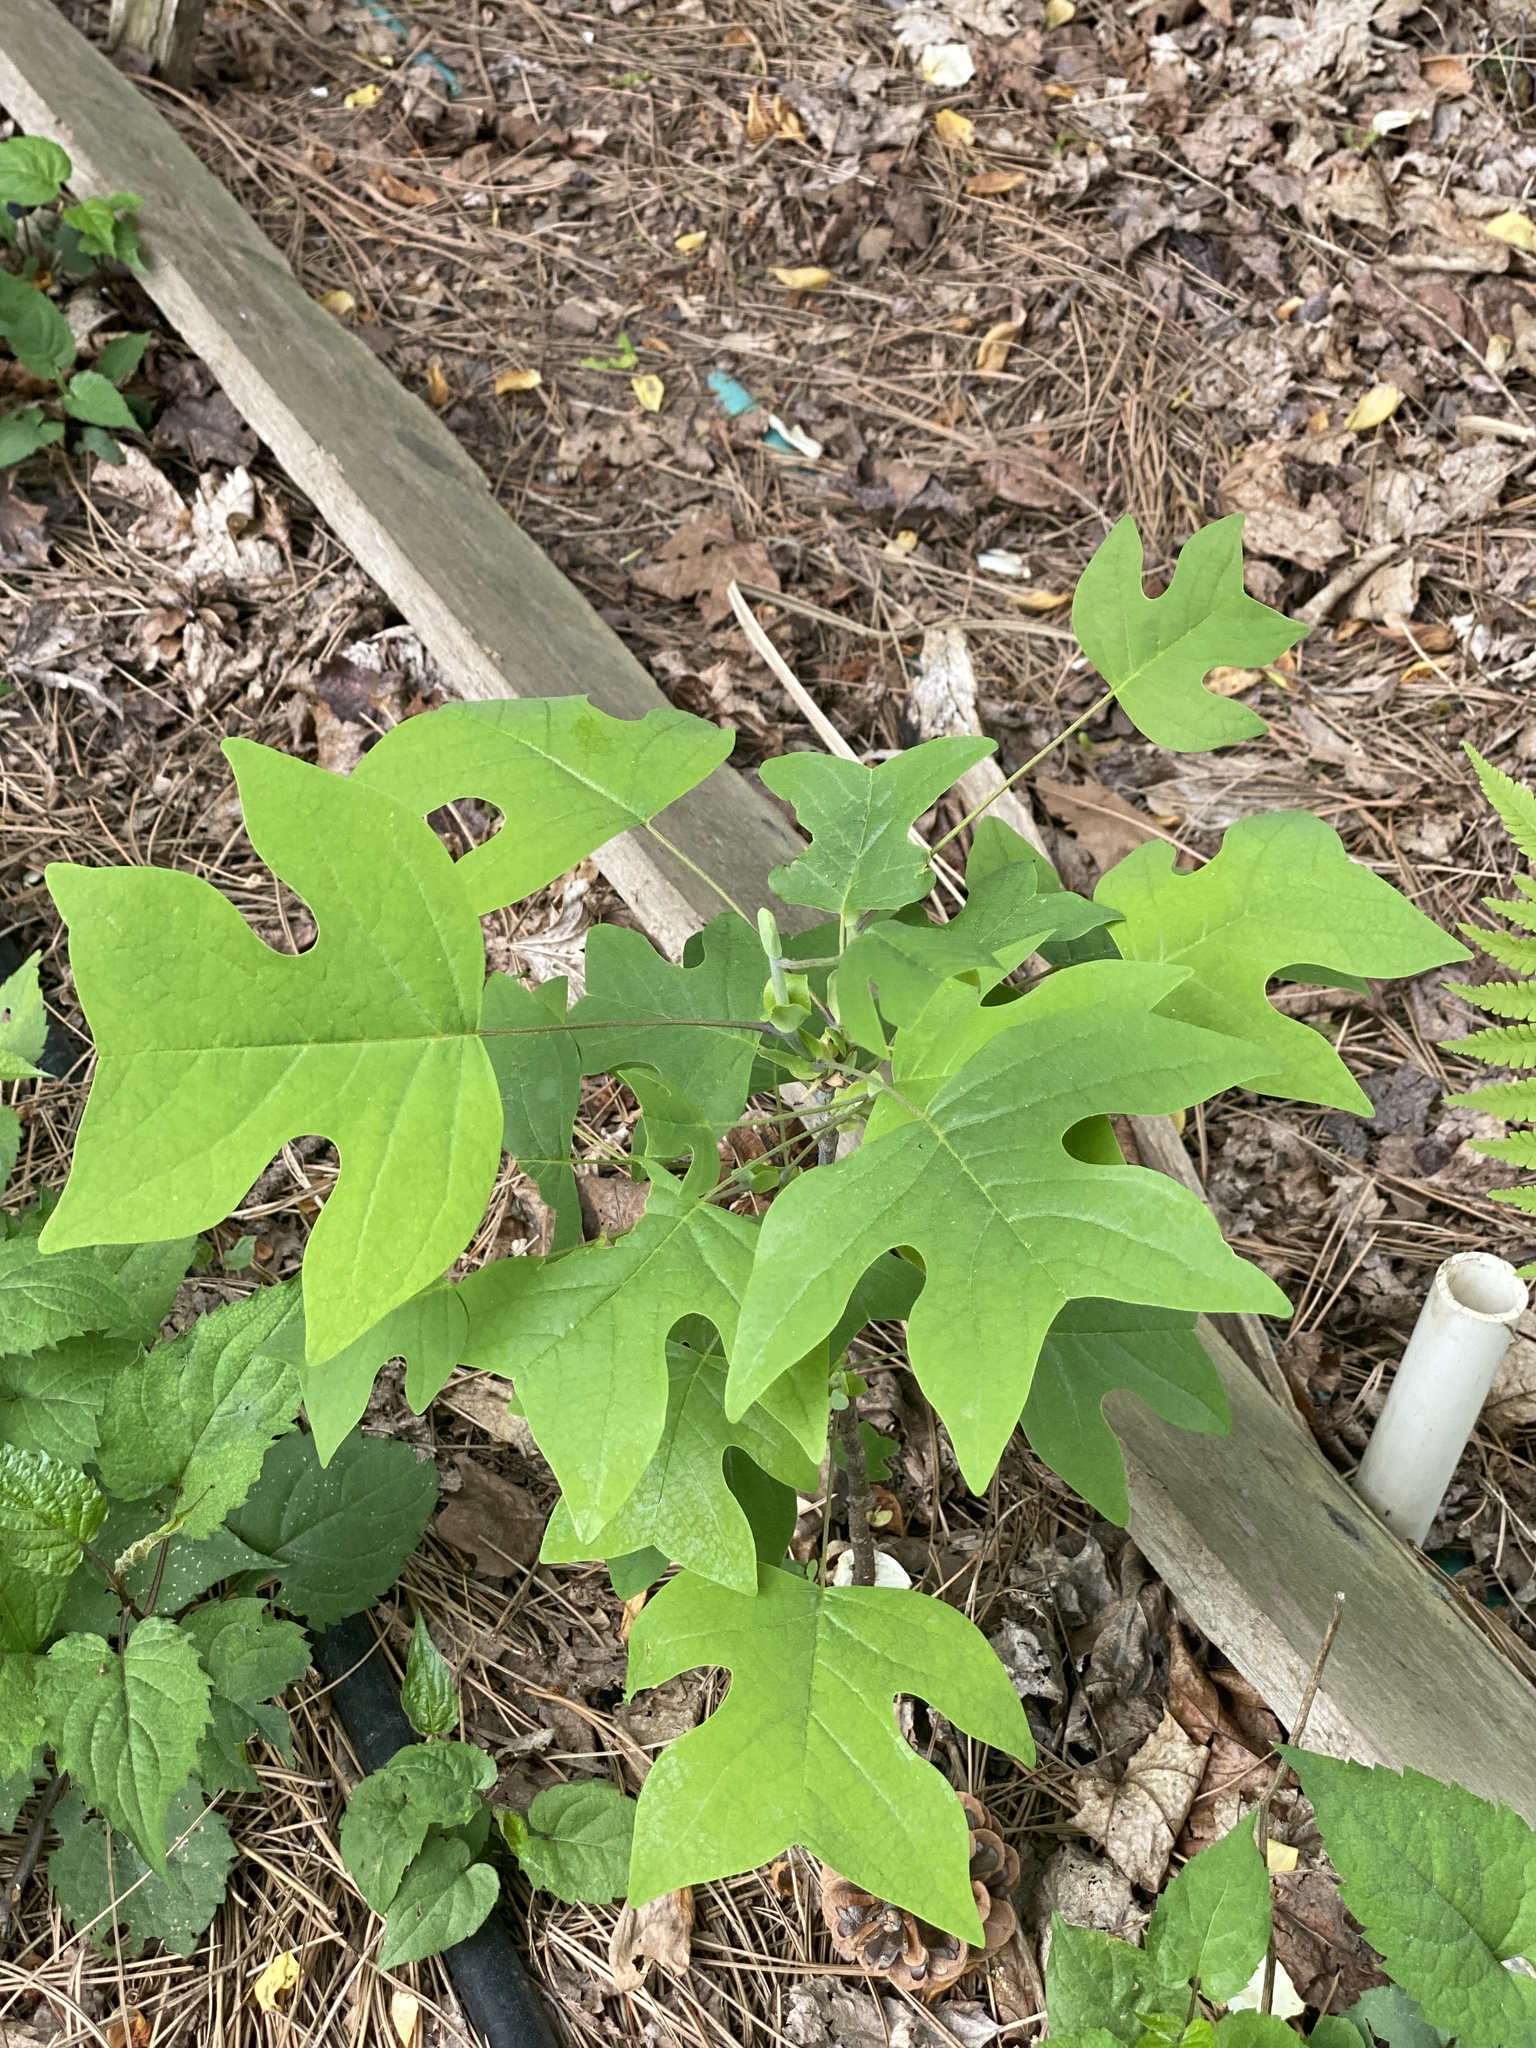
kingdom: Plantae
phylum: Tracheophyta
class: Magnoliopsida
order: Magnoliales
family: Magnoliaceae
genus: Liriodendron
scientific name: Liriodendron tulipifera
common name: Tulip tree
